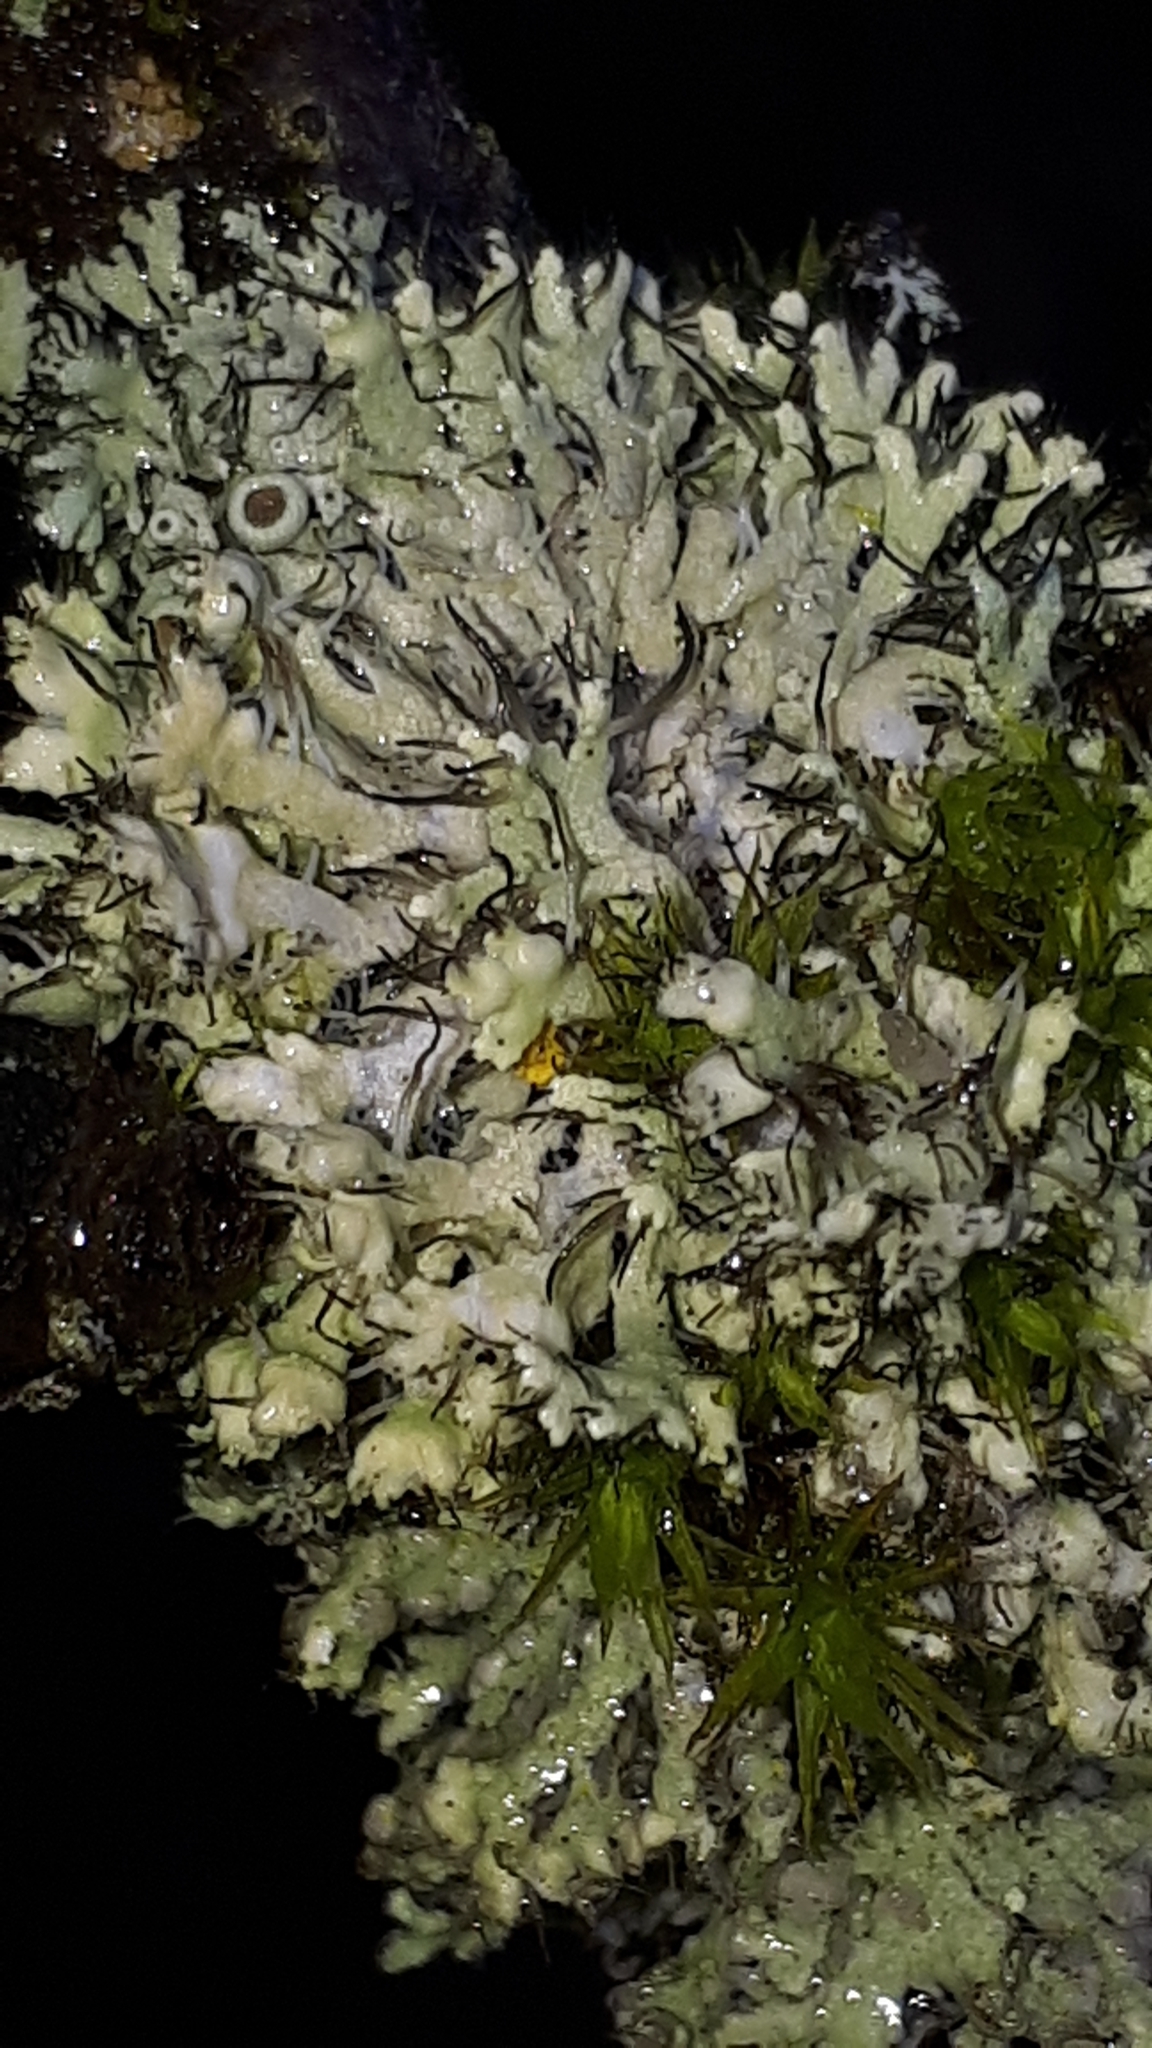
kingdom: Fungi
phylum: Ascomycota
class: Lecanoromycetes
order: Caliciales
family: Physciaceae
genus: Physcia
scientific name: Physcia adscendens
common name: Hooded rosette lichen
